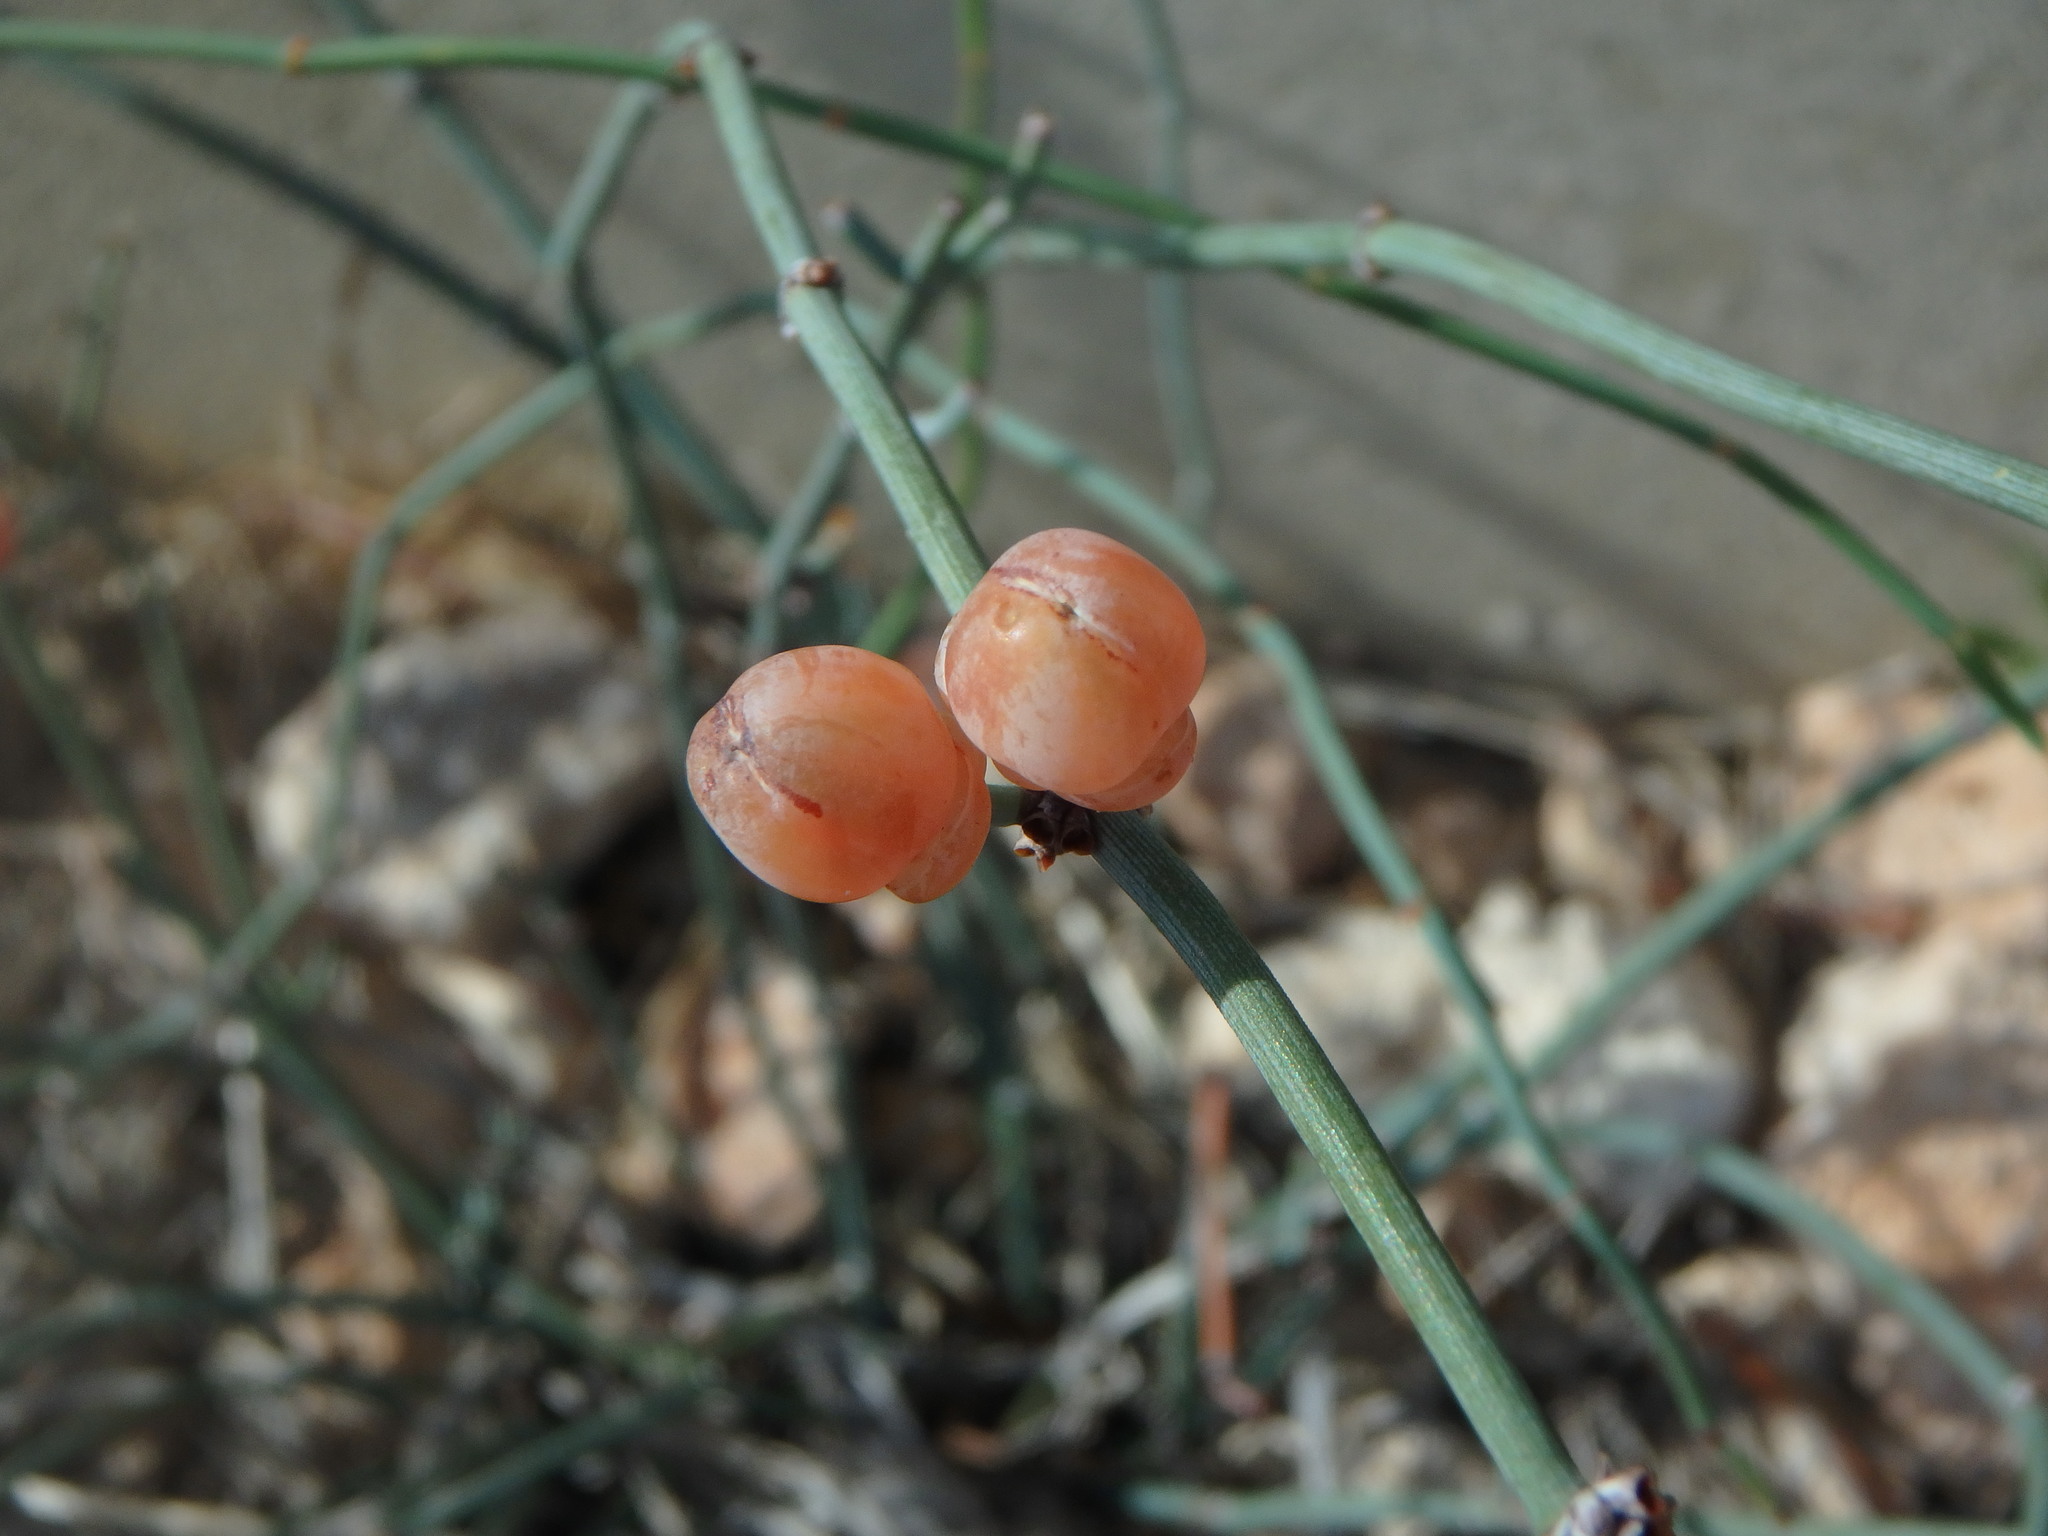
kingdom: Plantae
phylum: Tracheophyta
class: Gnetopsida
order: Ephedrales
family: Ephedraceae
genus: Ephedra
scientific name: Ephedra foeminea
